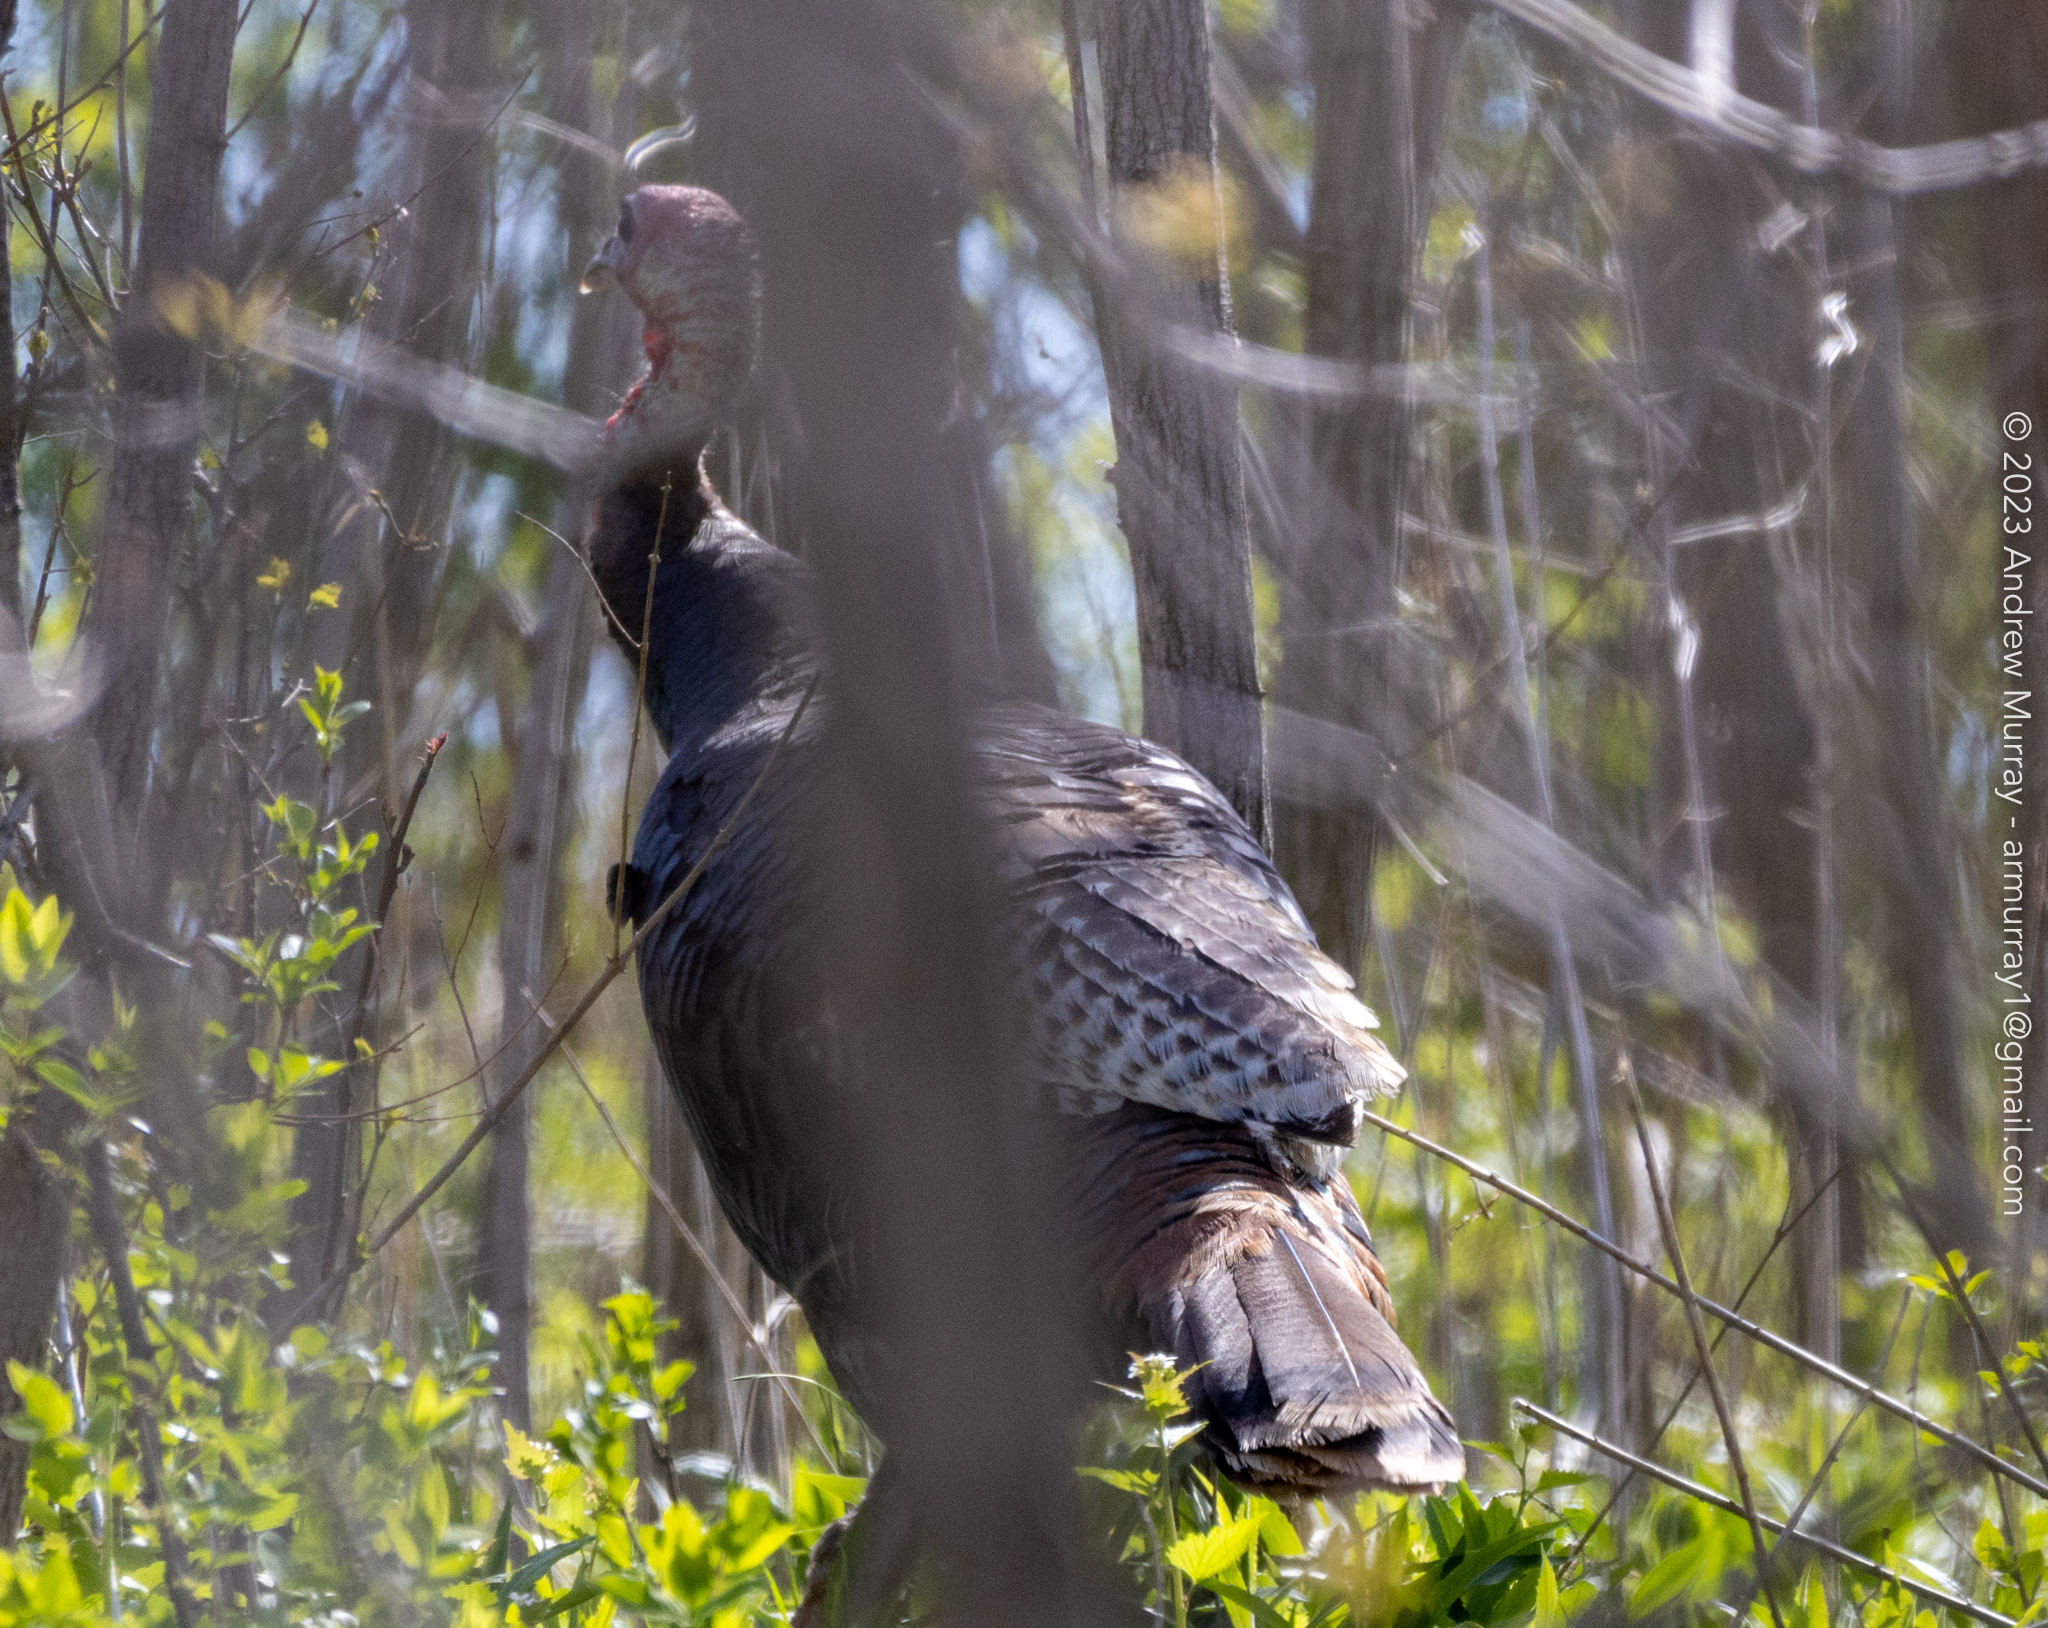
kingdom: Animalia
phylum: Chordata
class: Aves
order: Galliformes
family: Phasianidae
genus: Meleagris
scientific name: Meleagris gallopavo
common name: Wild turkey
